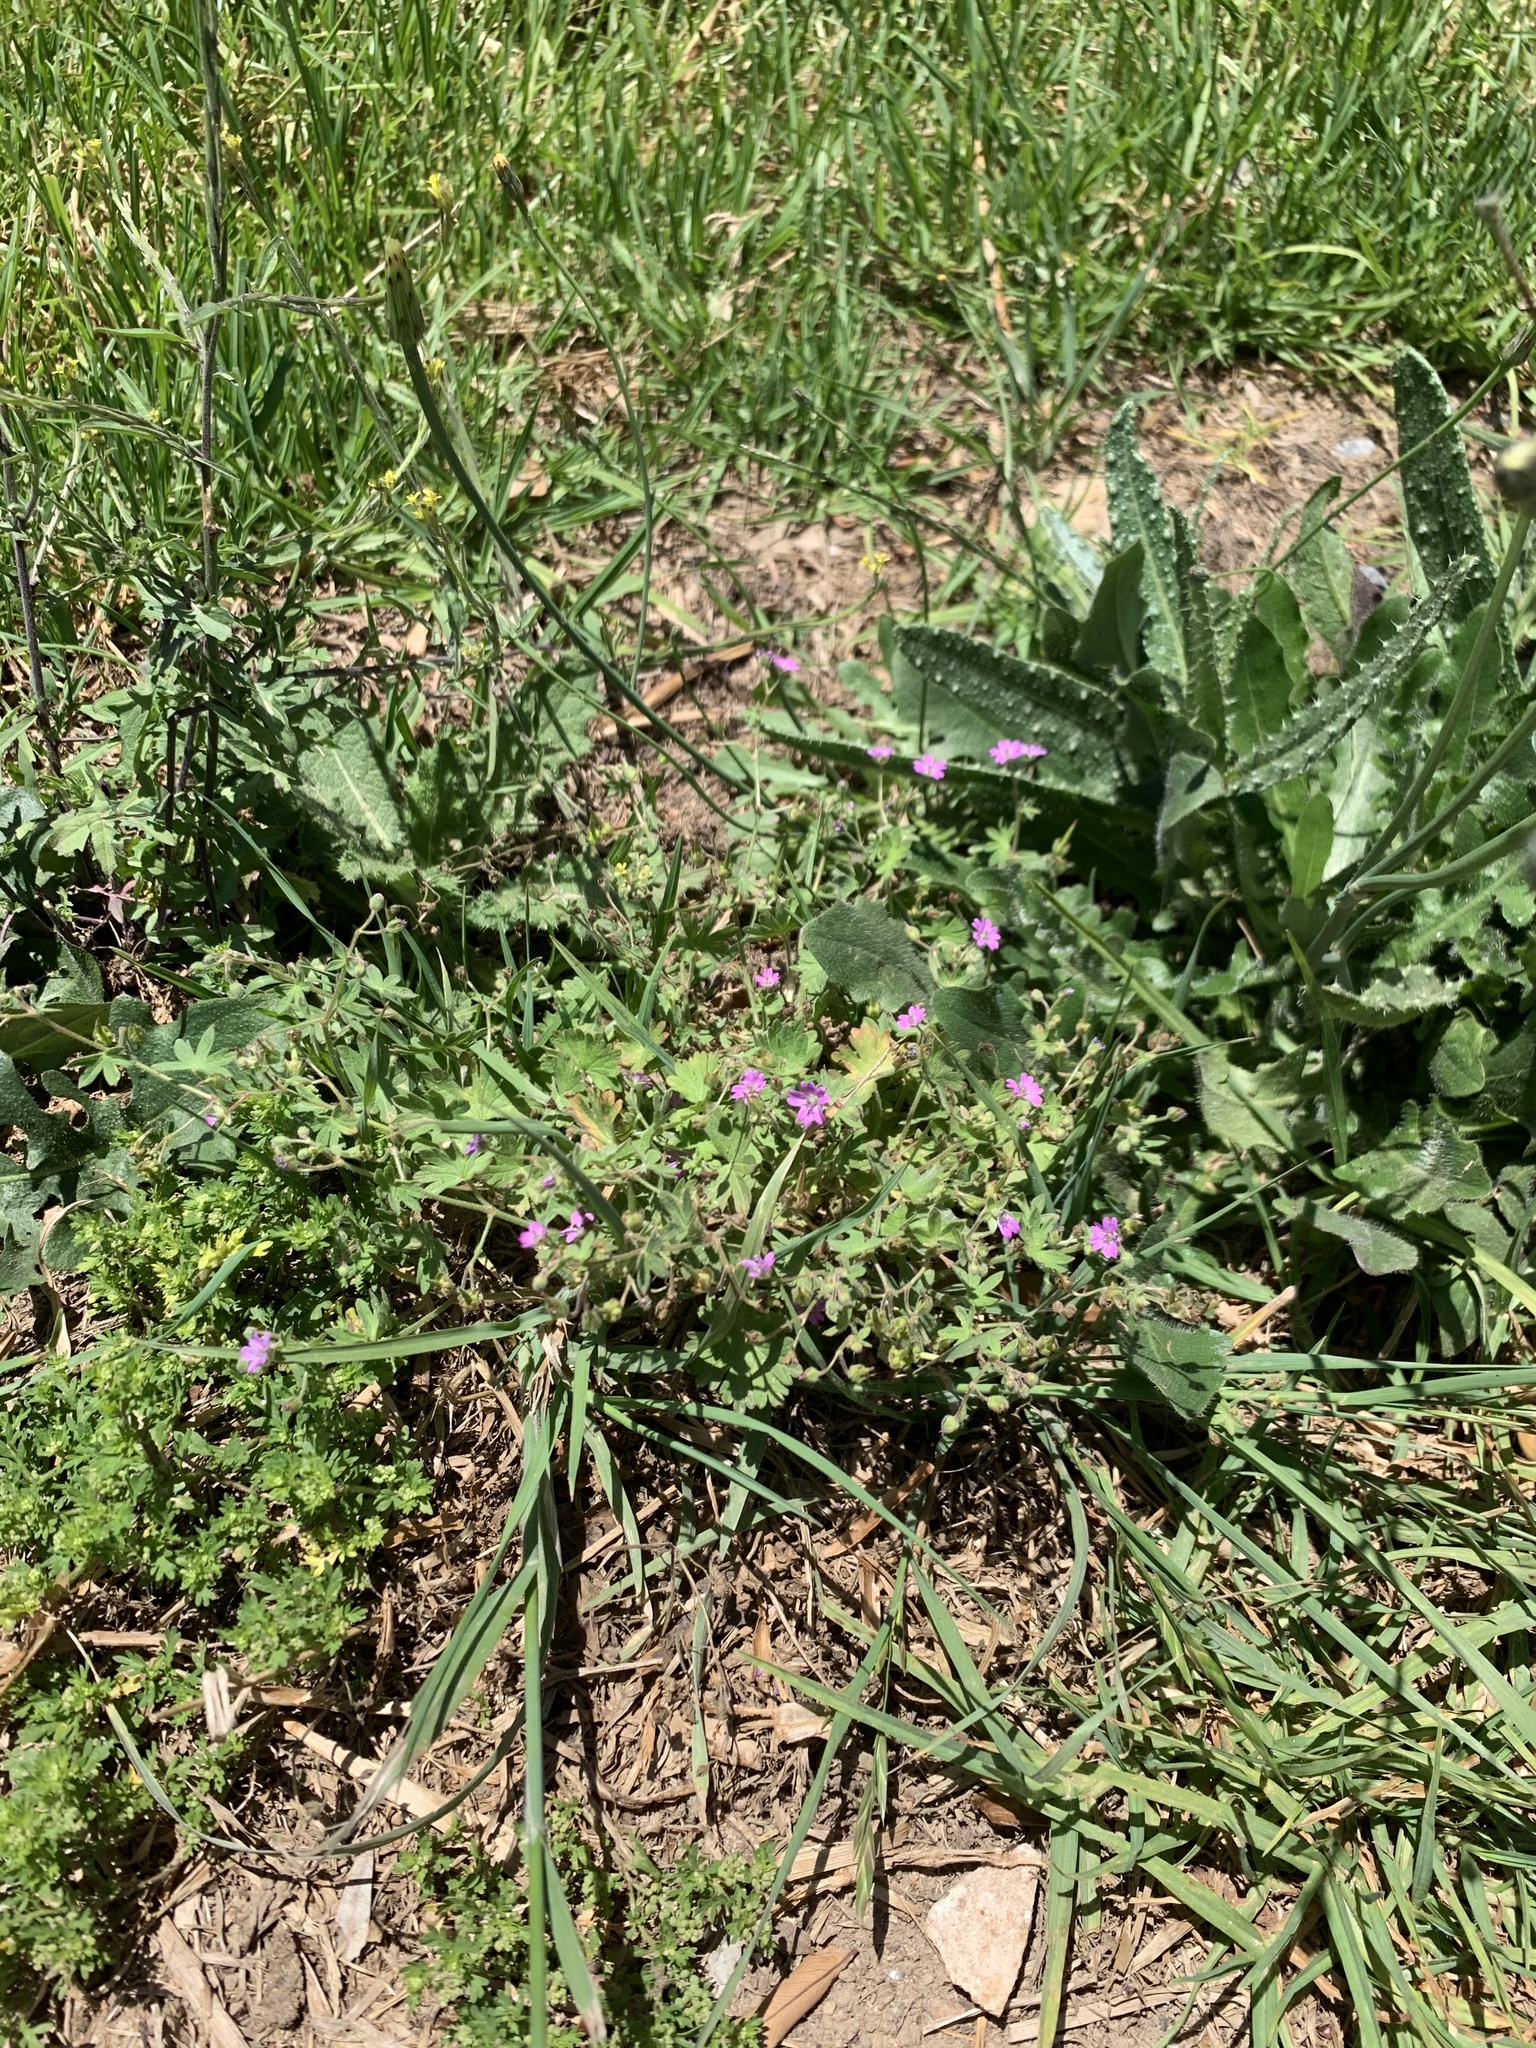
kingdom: Plantae
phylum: Tracheophyta
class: Magnoliopsida
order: Geraniales
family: Geraniaceae
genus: Geranium
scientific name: Geranium molle
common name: Dove's-foot crane's-bill
